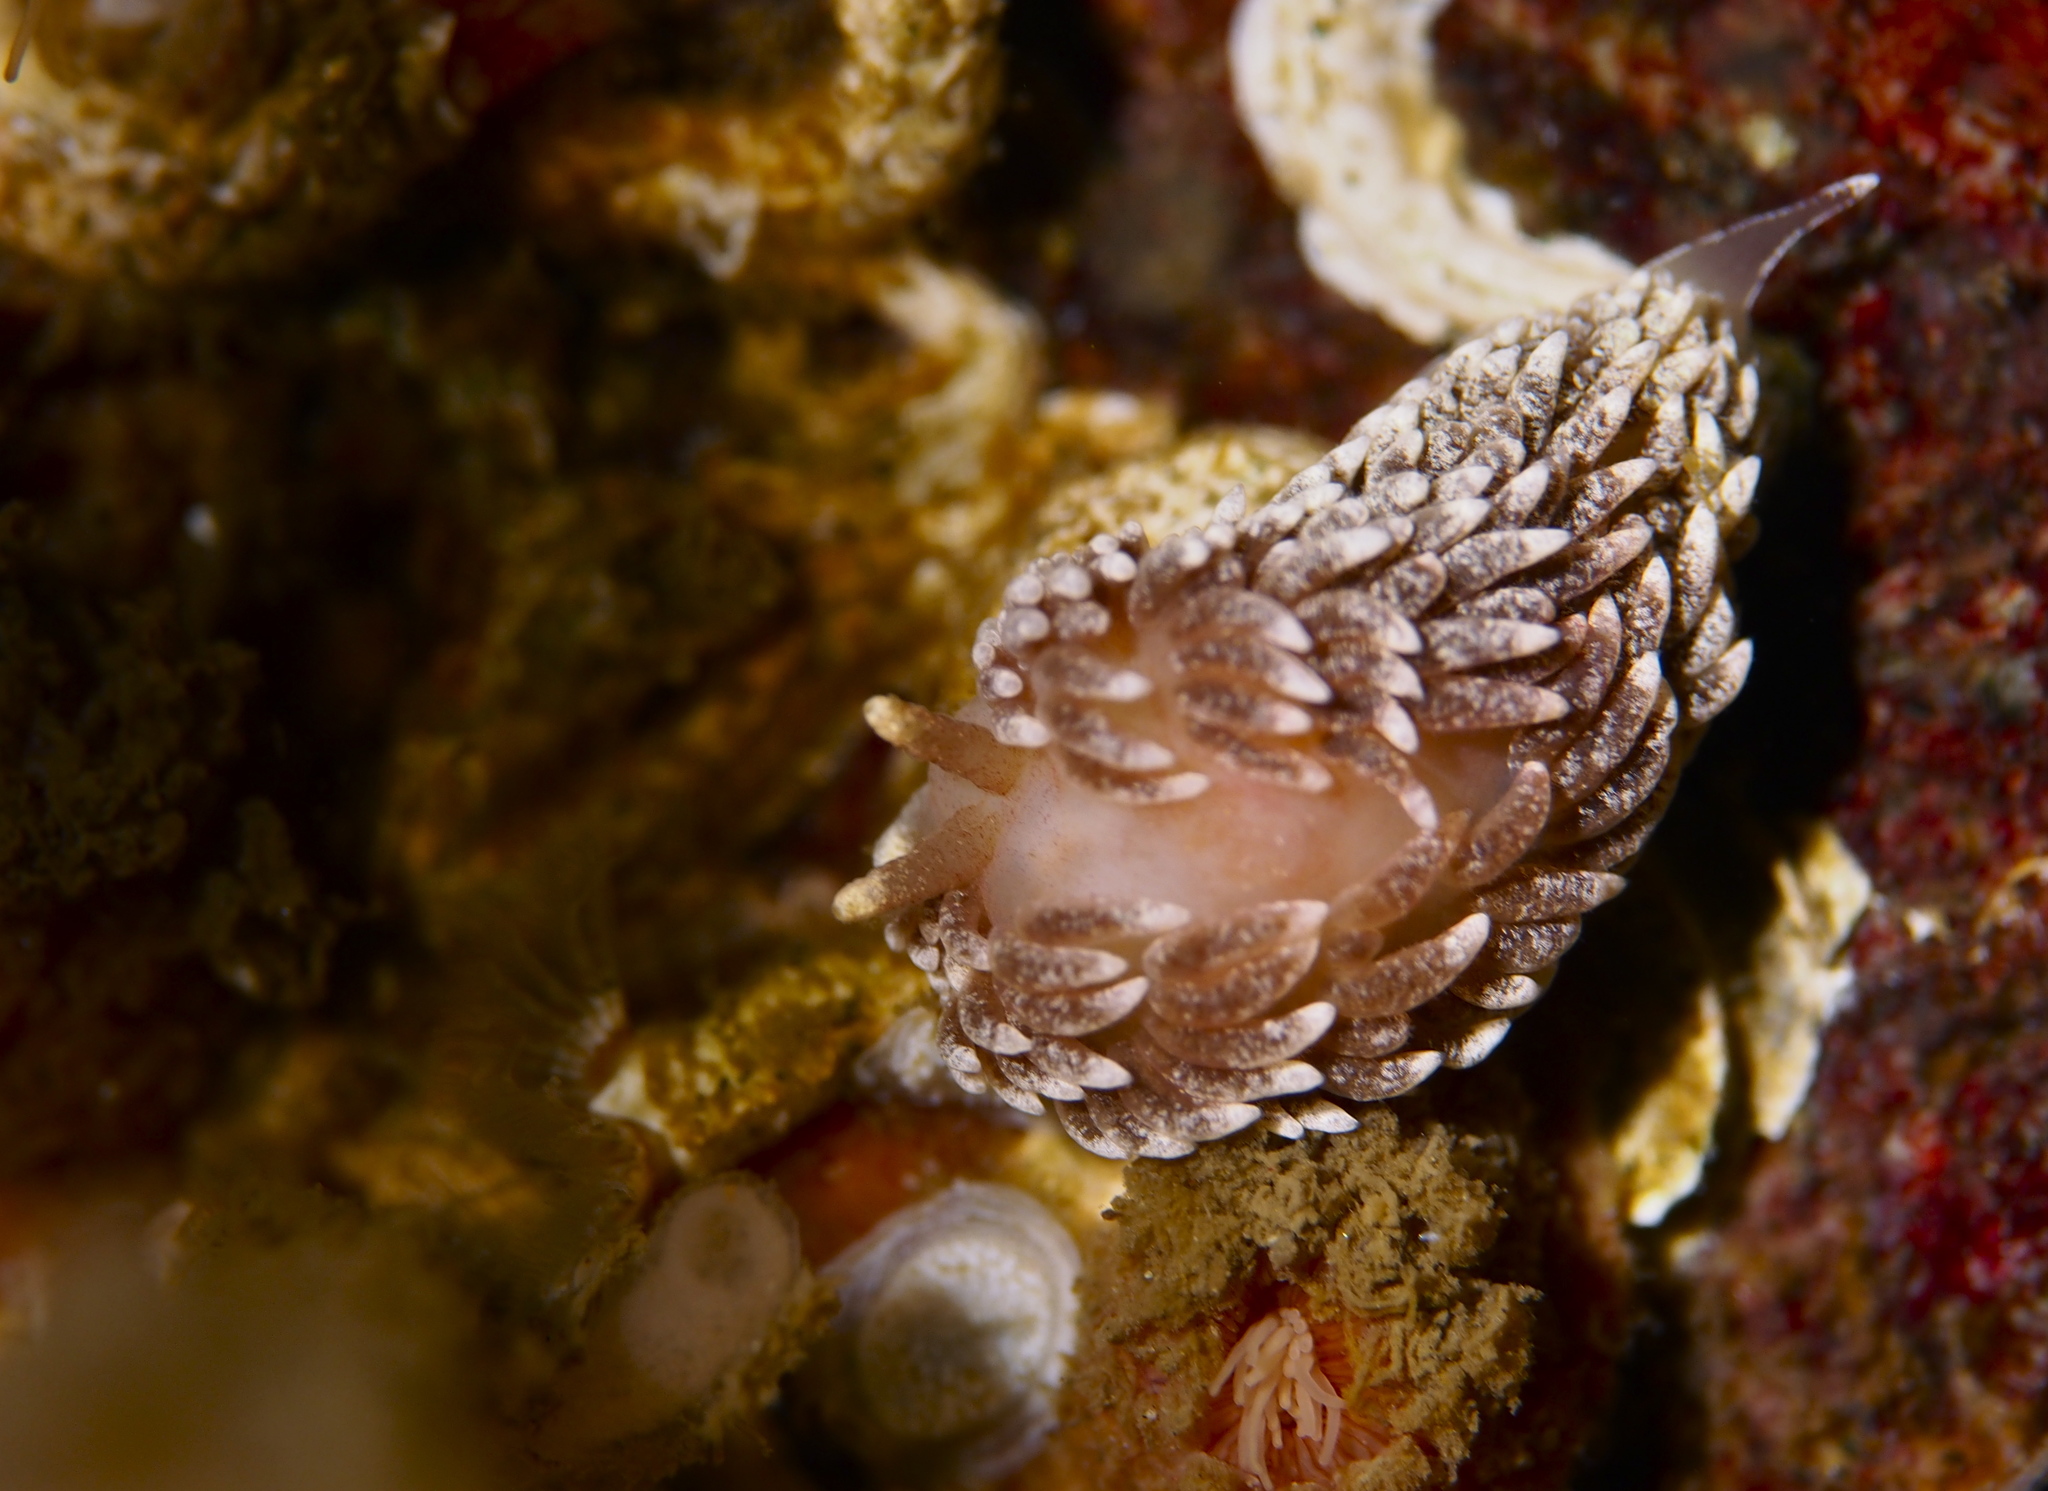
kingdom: Animalia
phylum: Mollusca
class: Gastropoda
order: Nudibranchia
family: Aeolidiidae
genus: Aeolidiella
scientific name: Aeolidiella glauca
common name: Orange-brown aeolid
